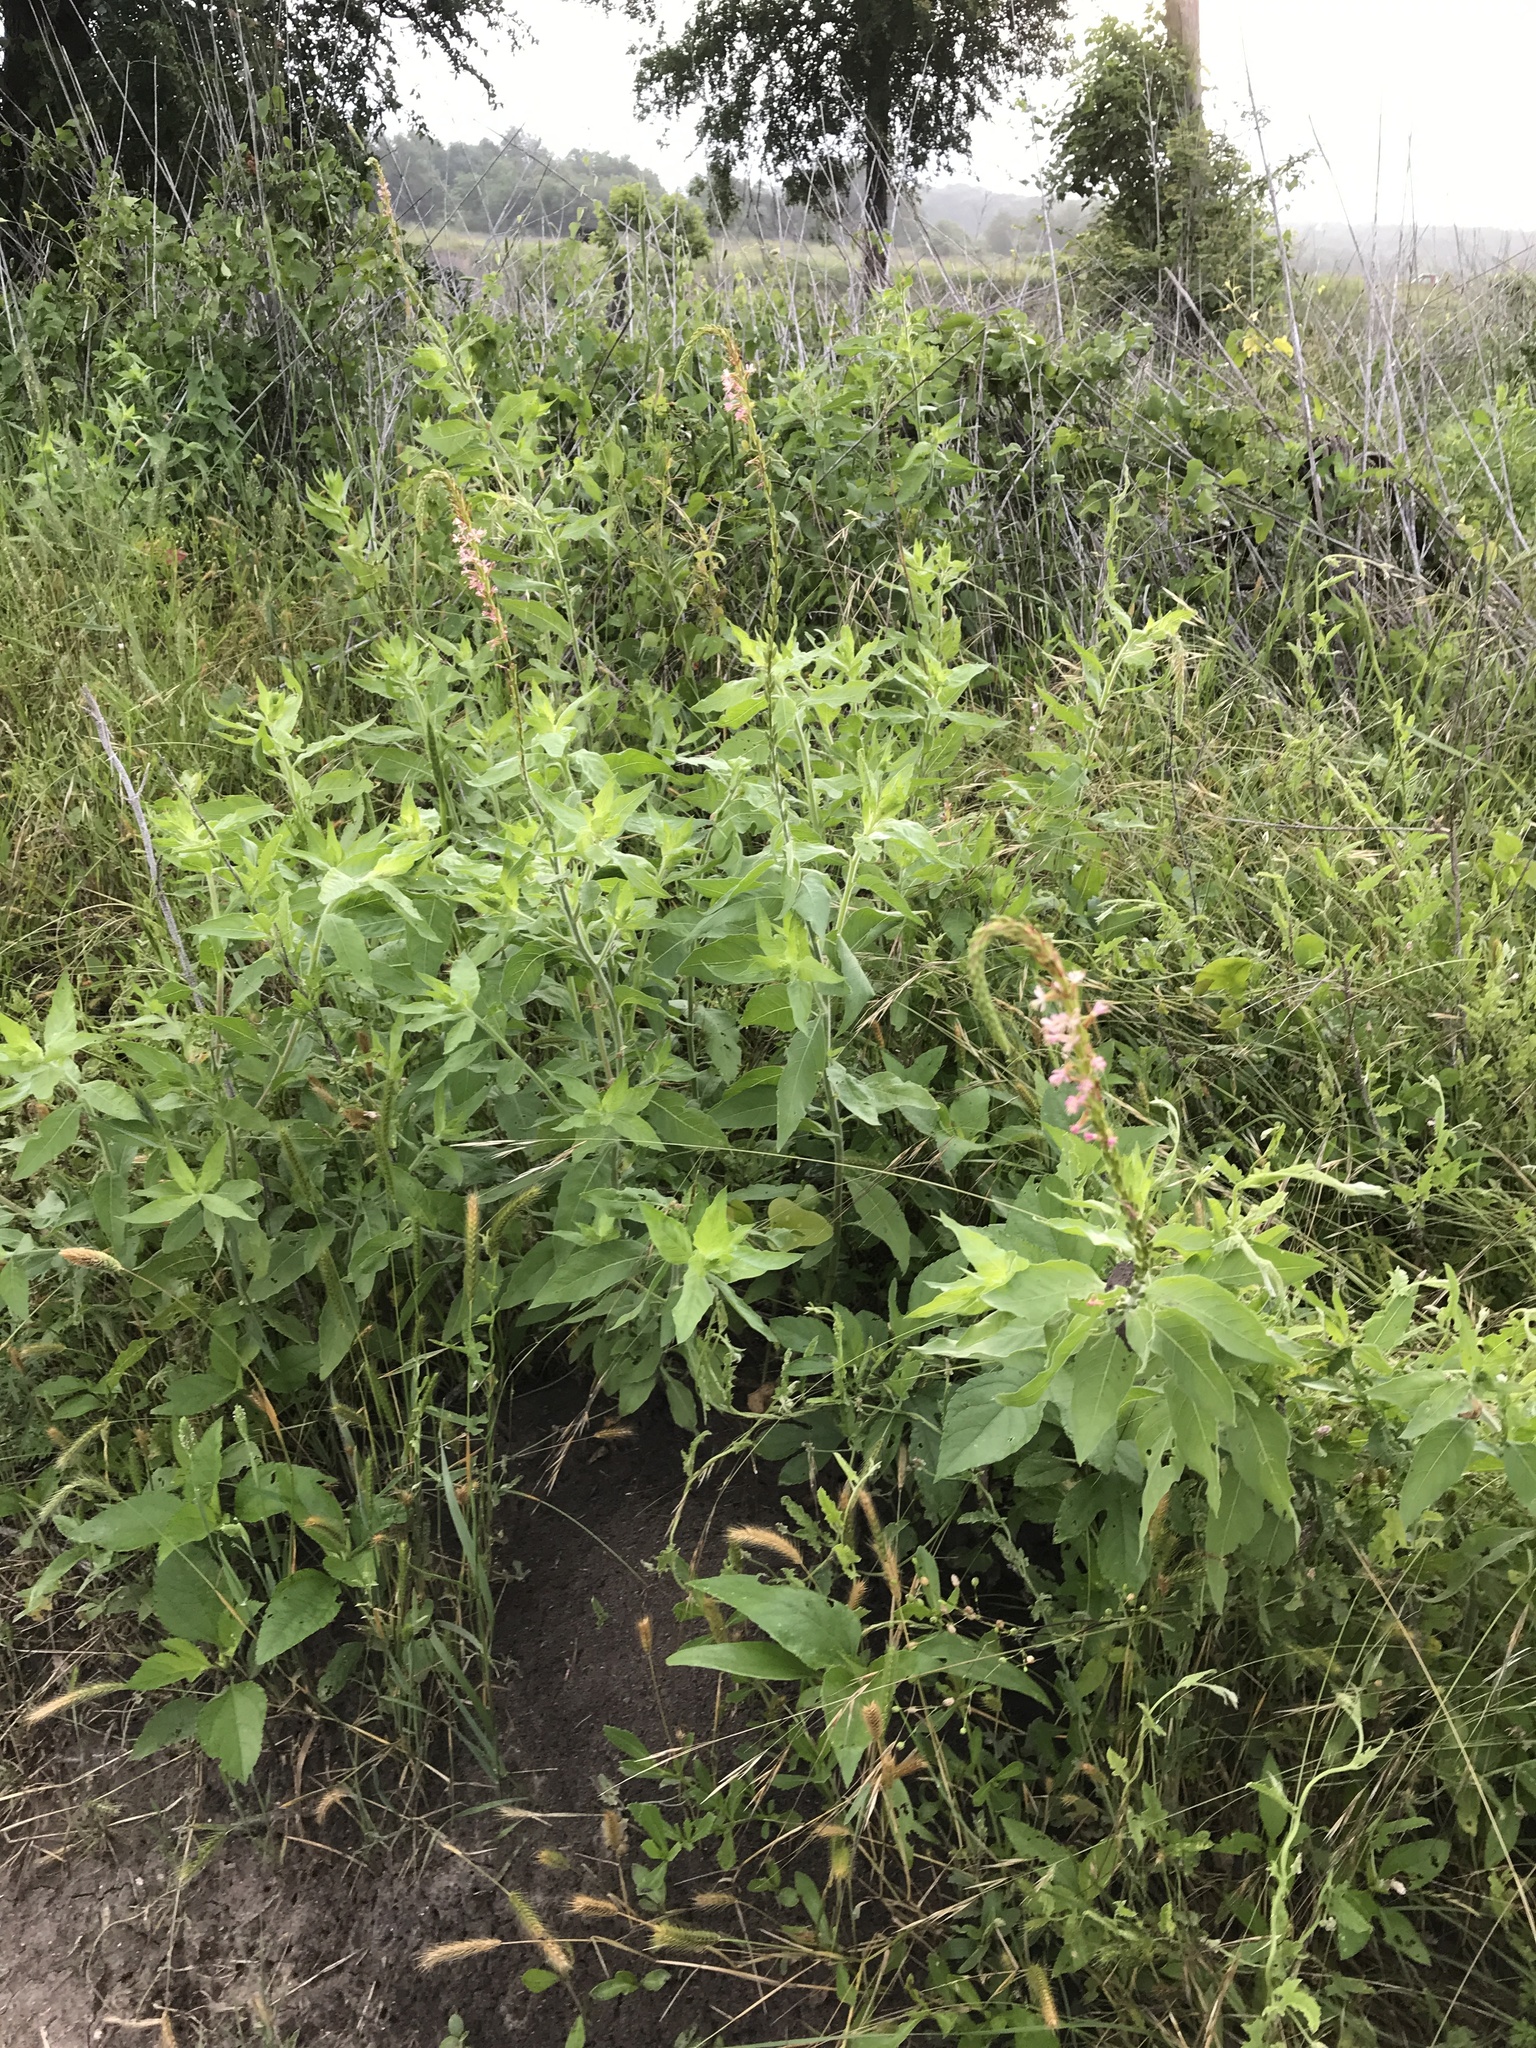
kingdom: Plantae
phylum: Tracheophyta
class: Magnoliopsida
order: Myrtales
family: Onagraceae
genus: Oenothera
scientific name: Oenothera curtiflora
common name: Velvetweed
